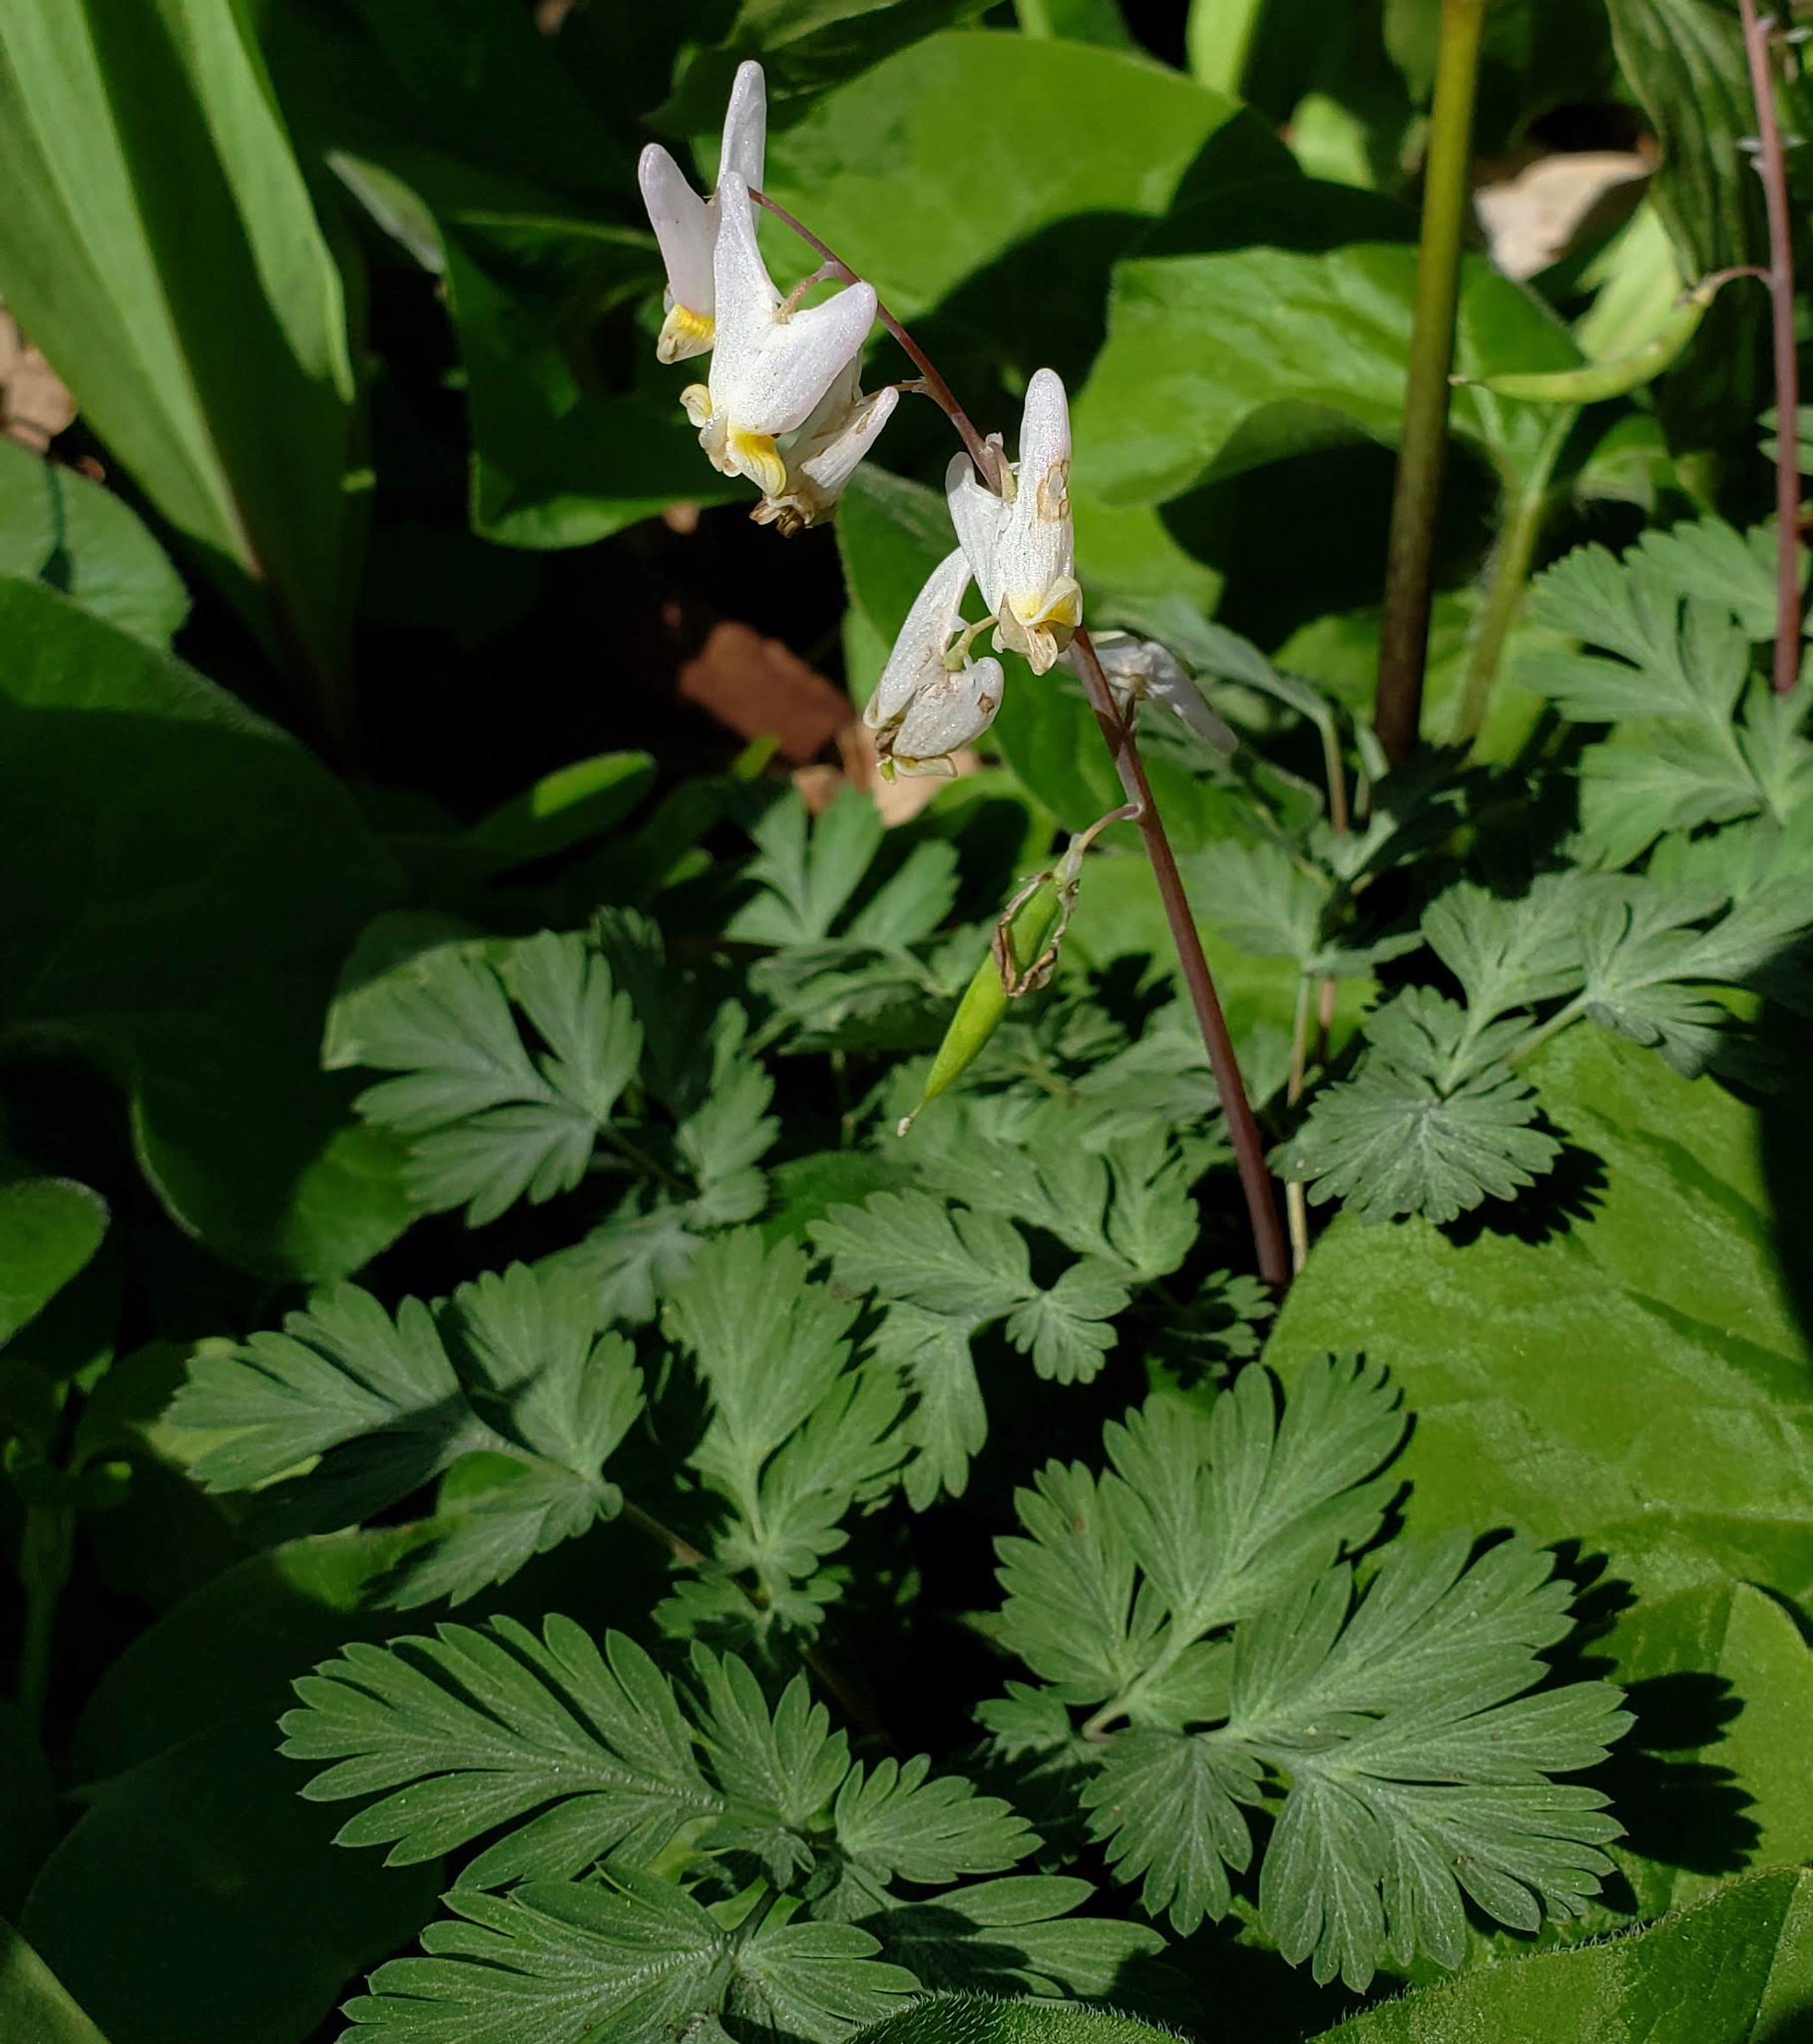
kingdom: Plantae
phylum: Tracheophyta
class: Magnoliopsida
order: Ranunculales
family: Papaveraceae
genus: Dicentra
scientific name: Dicentra cucullaria
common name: Dutchman's breeches
